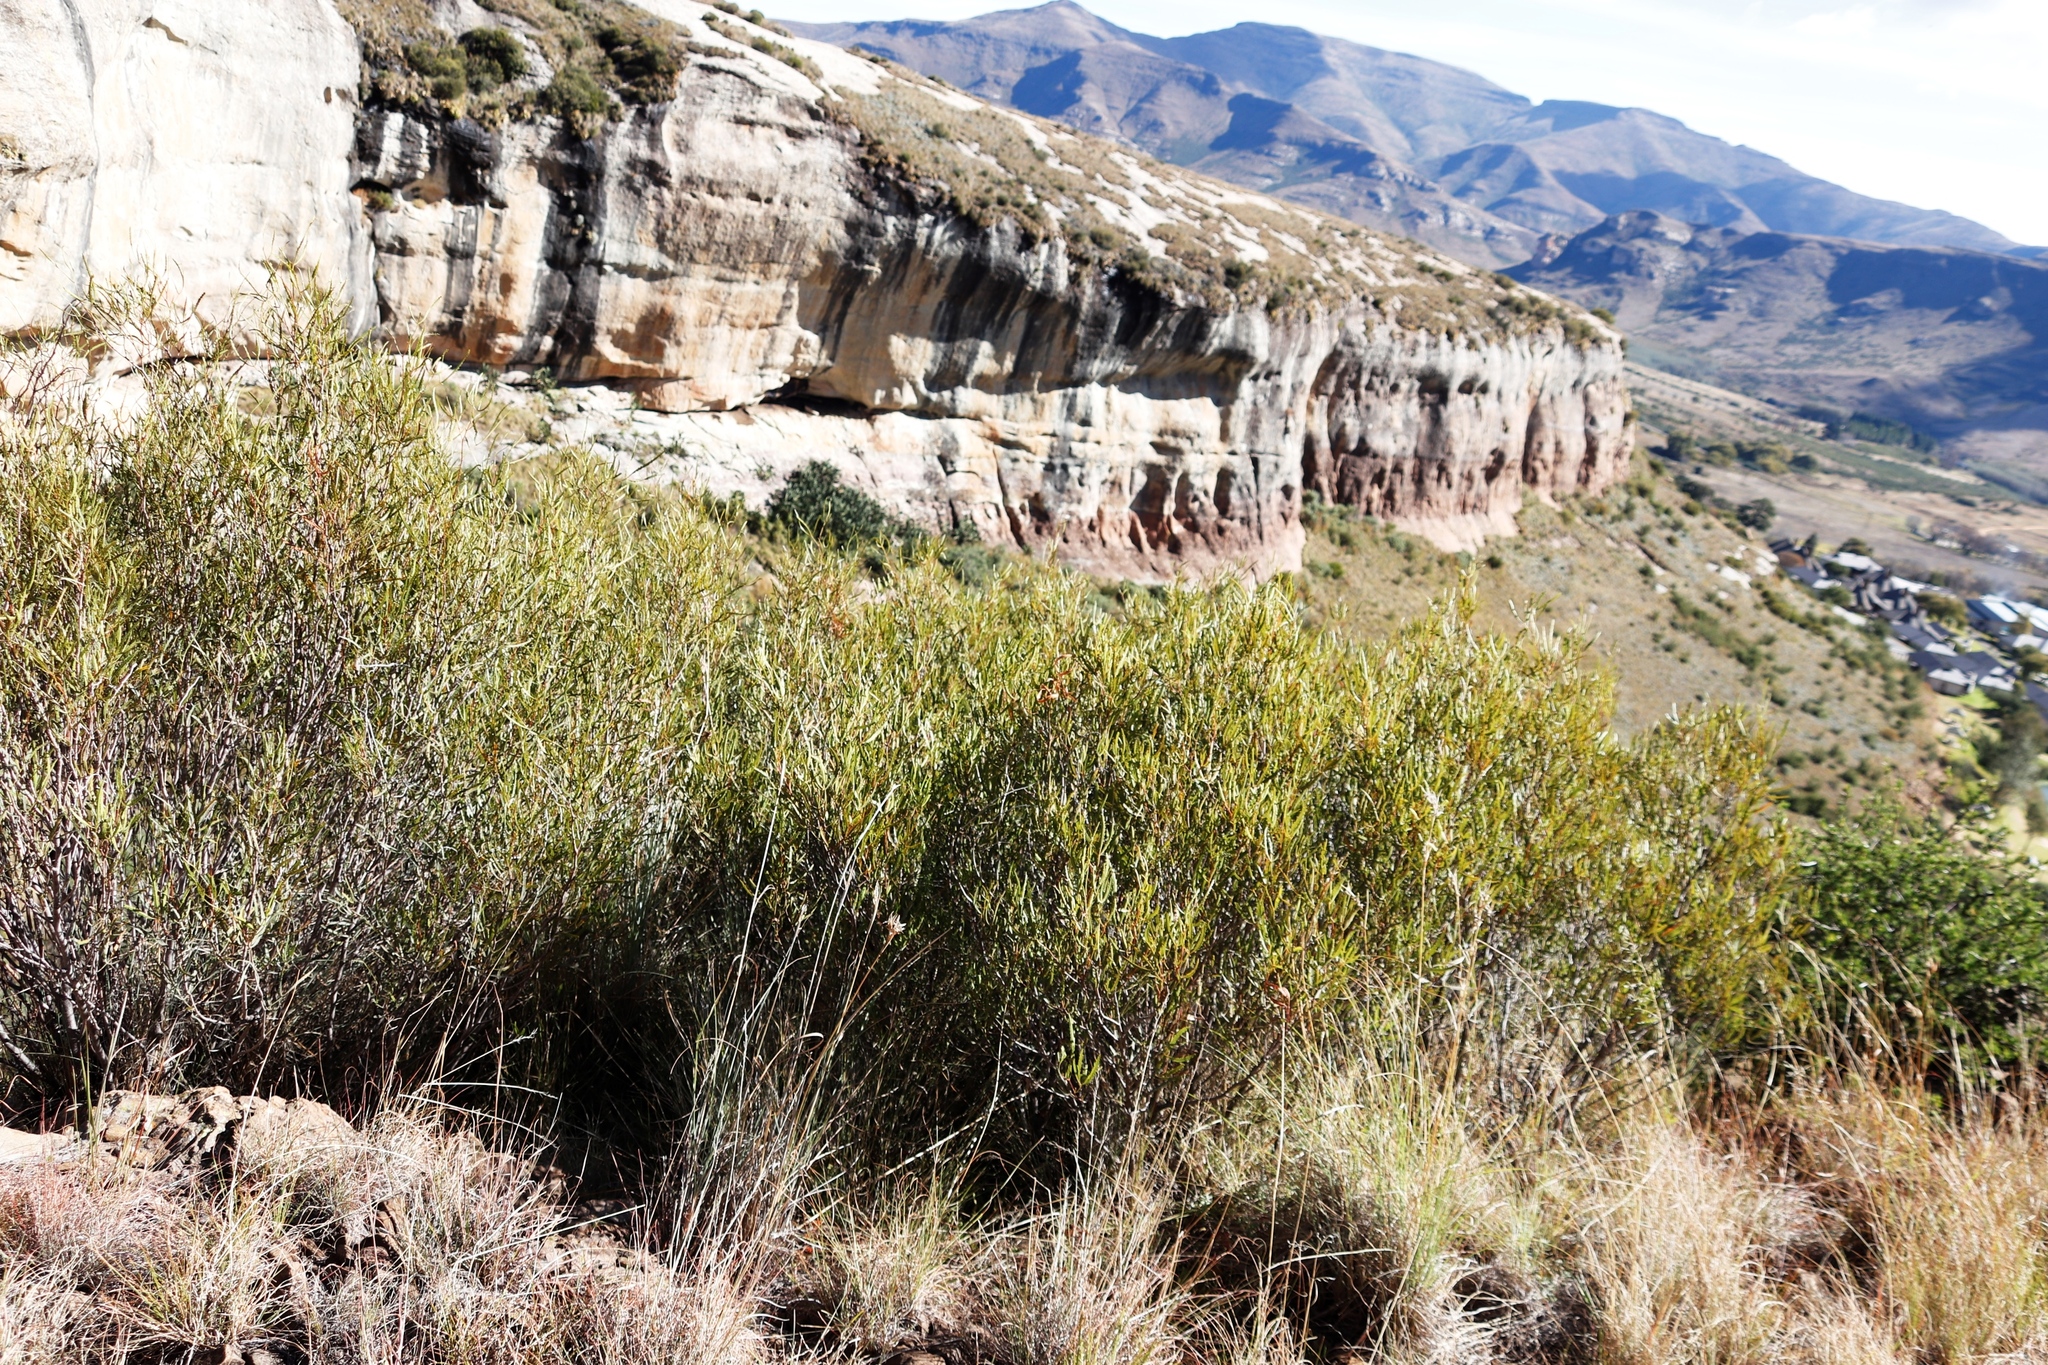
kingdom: Plantae
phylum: Tracheophyta
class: Magnoliopsida
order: Sapindales
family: Anacardiaceae
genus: Searsia
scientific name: Searsia erosa
